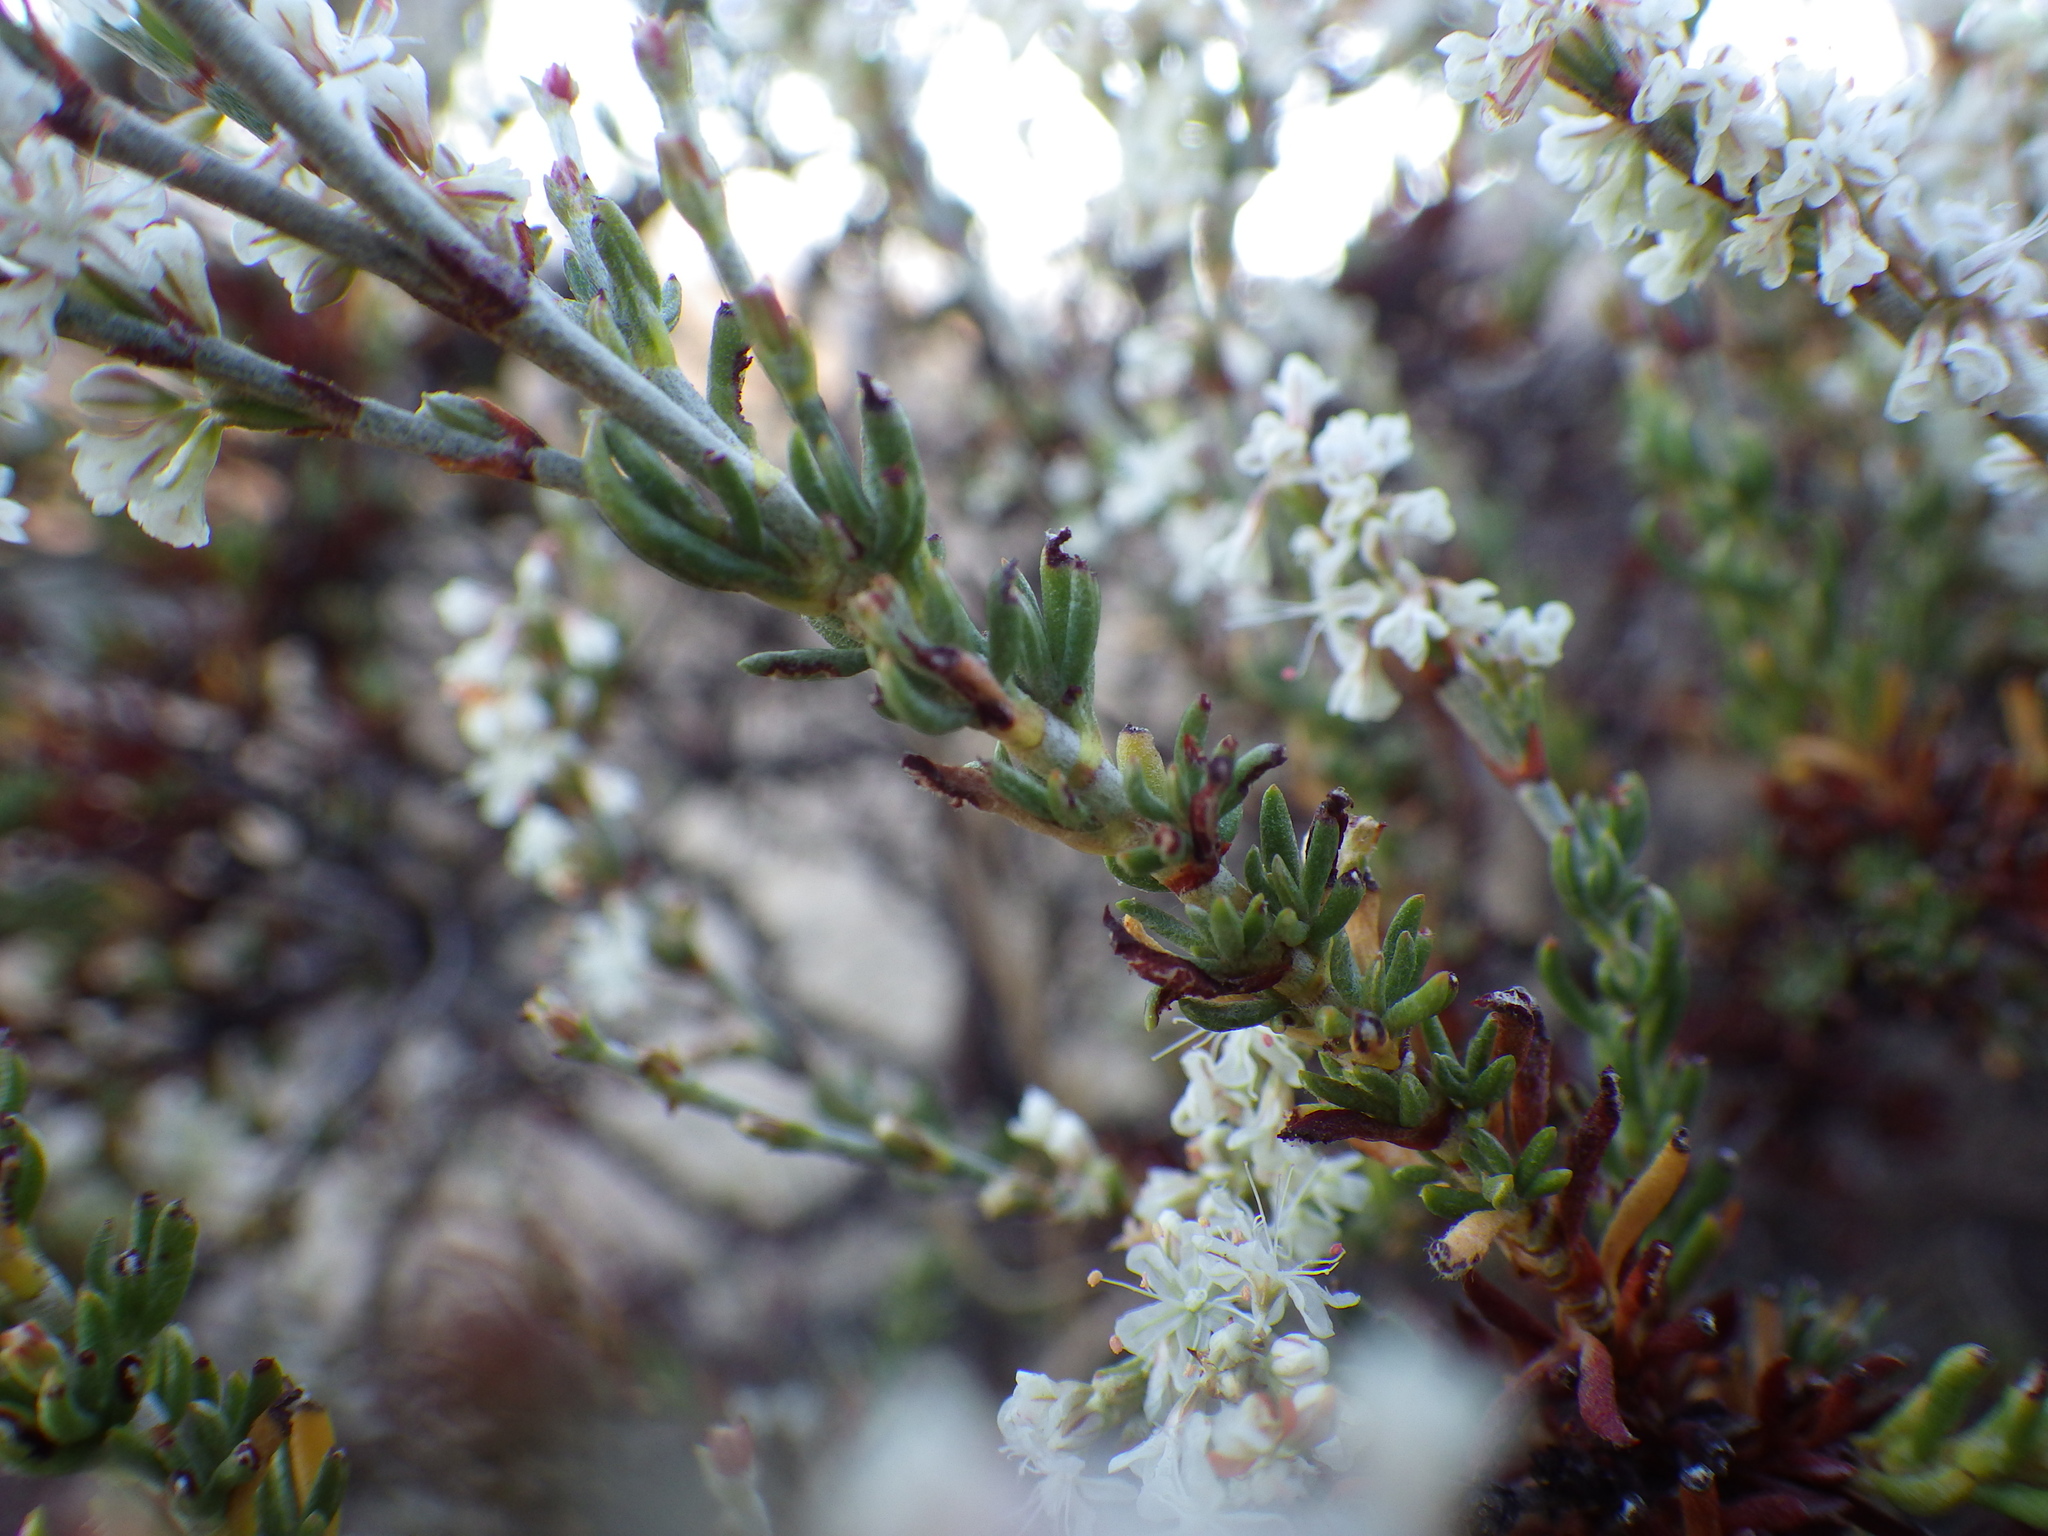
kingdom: Plantae
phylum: Tracheophyta
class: Magnoliopsida
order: Caryophyllales
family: Polygonaceae
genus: Eriogonum
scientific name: Eriogonum wrightii
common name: Bastard-sage
